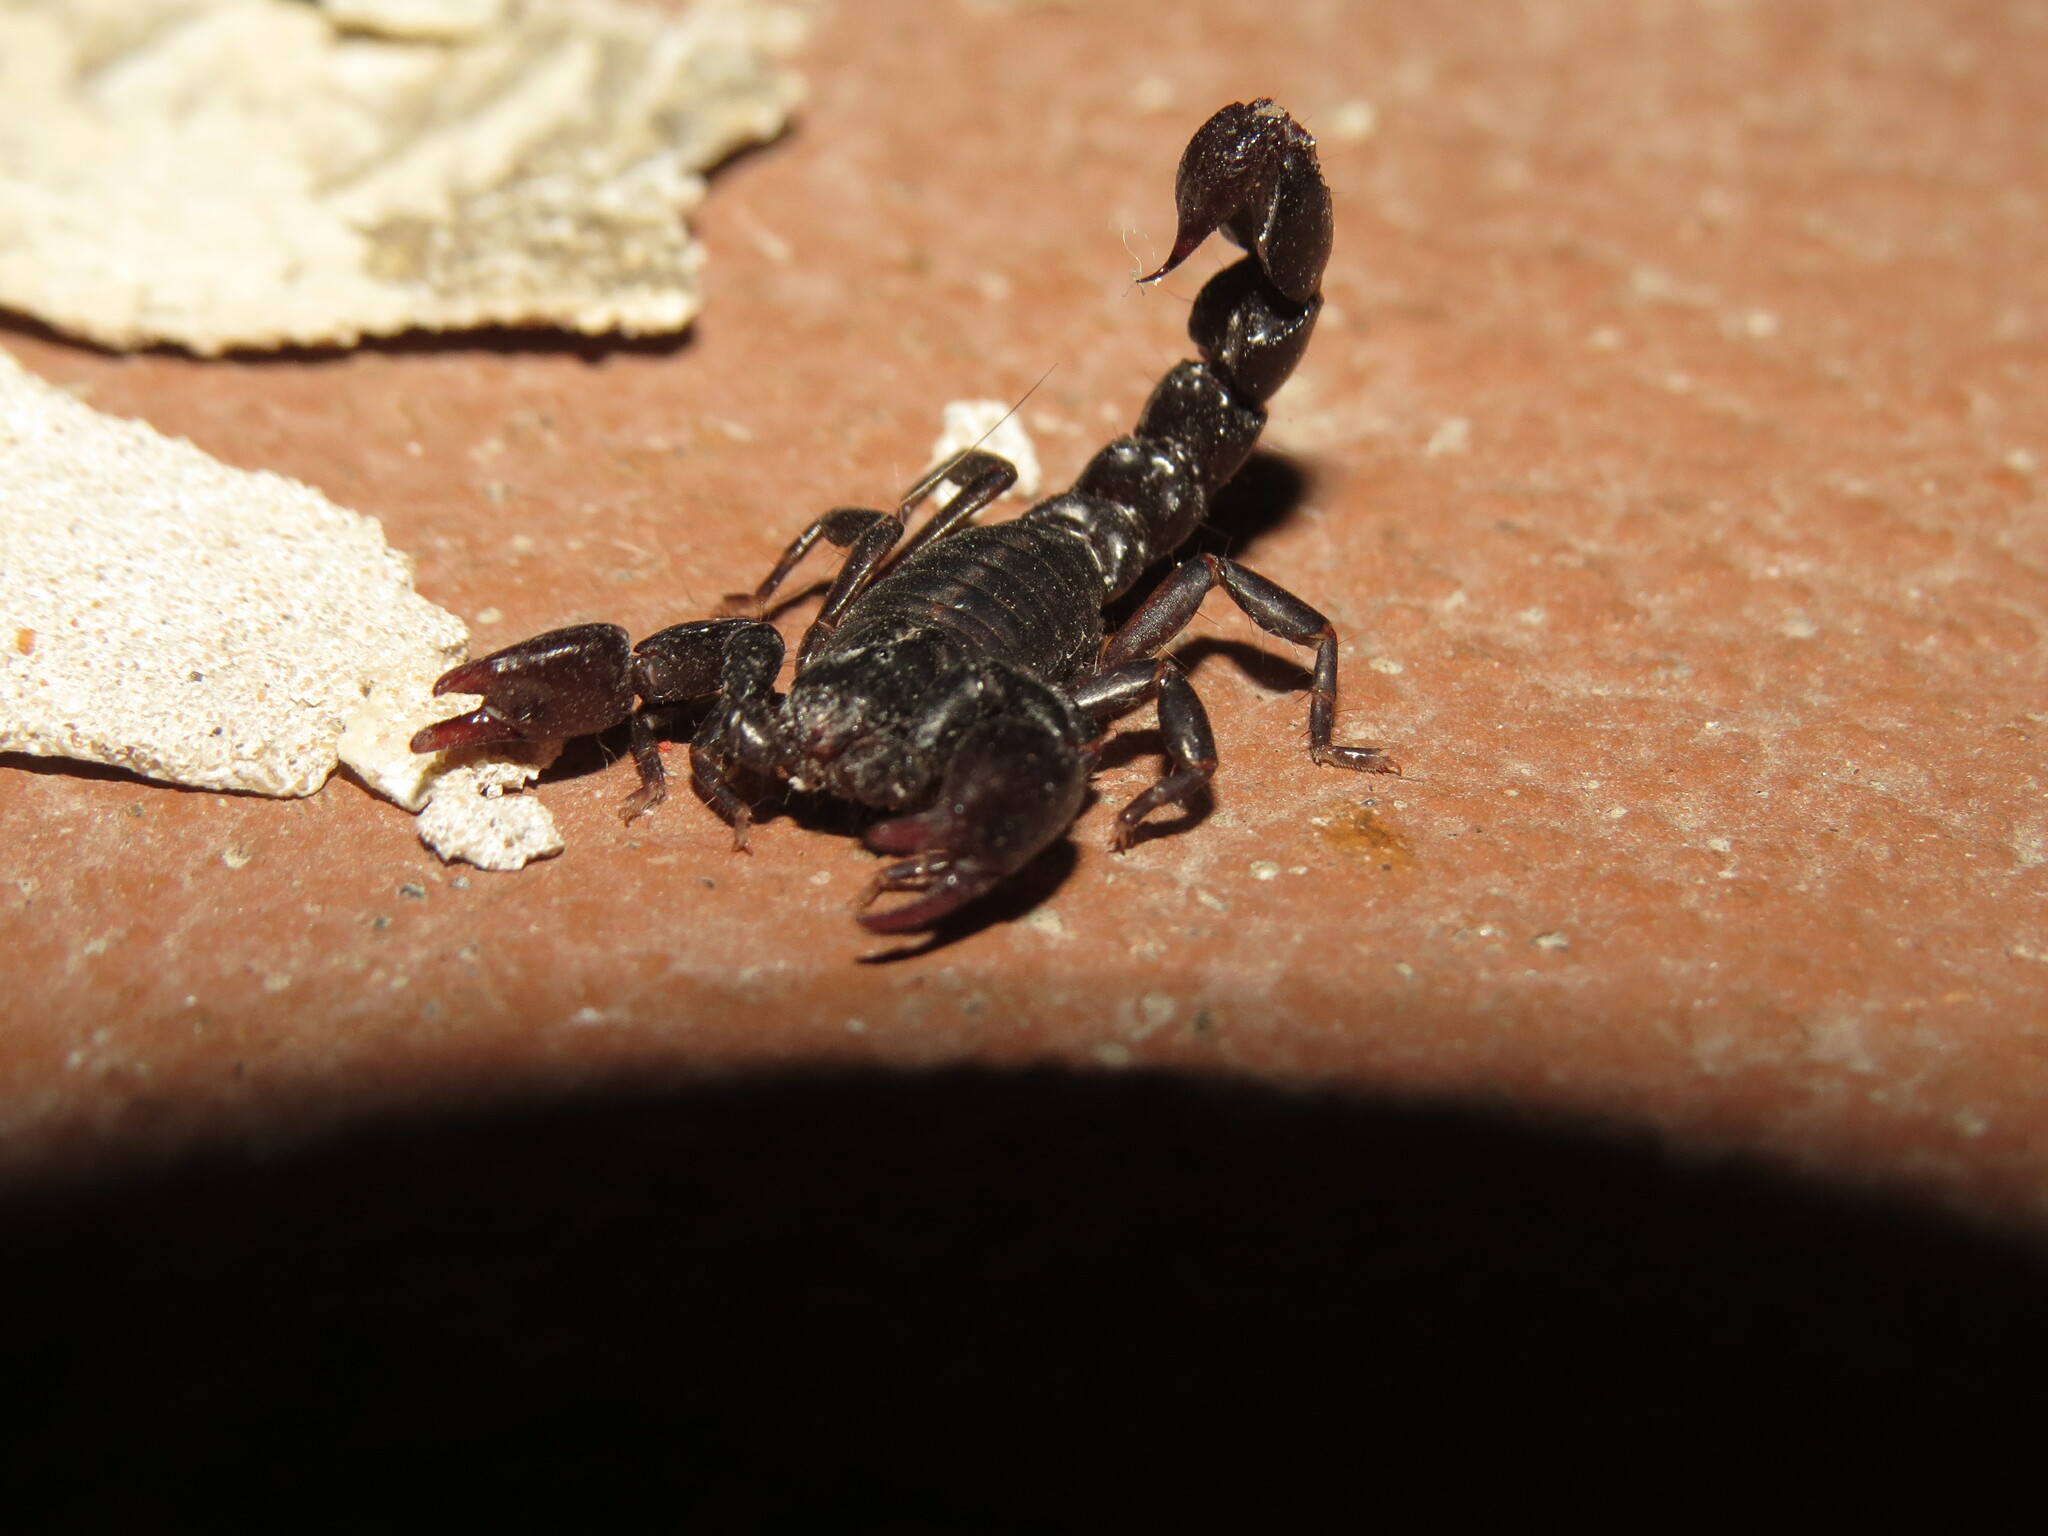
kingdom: Animalia
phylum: Arthropoda
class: Arachnida
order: Scorpiones
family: Bothriuridae
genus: Bothriurus
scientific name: Bothriurus bonariensis
